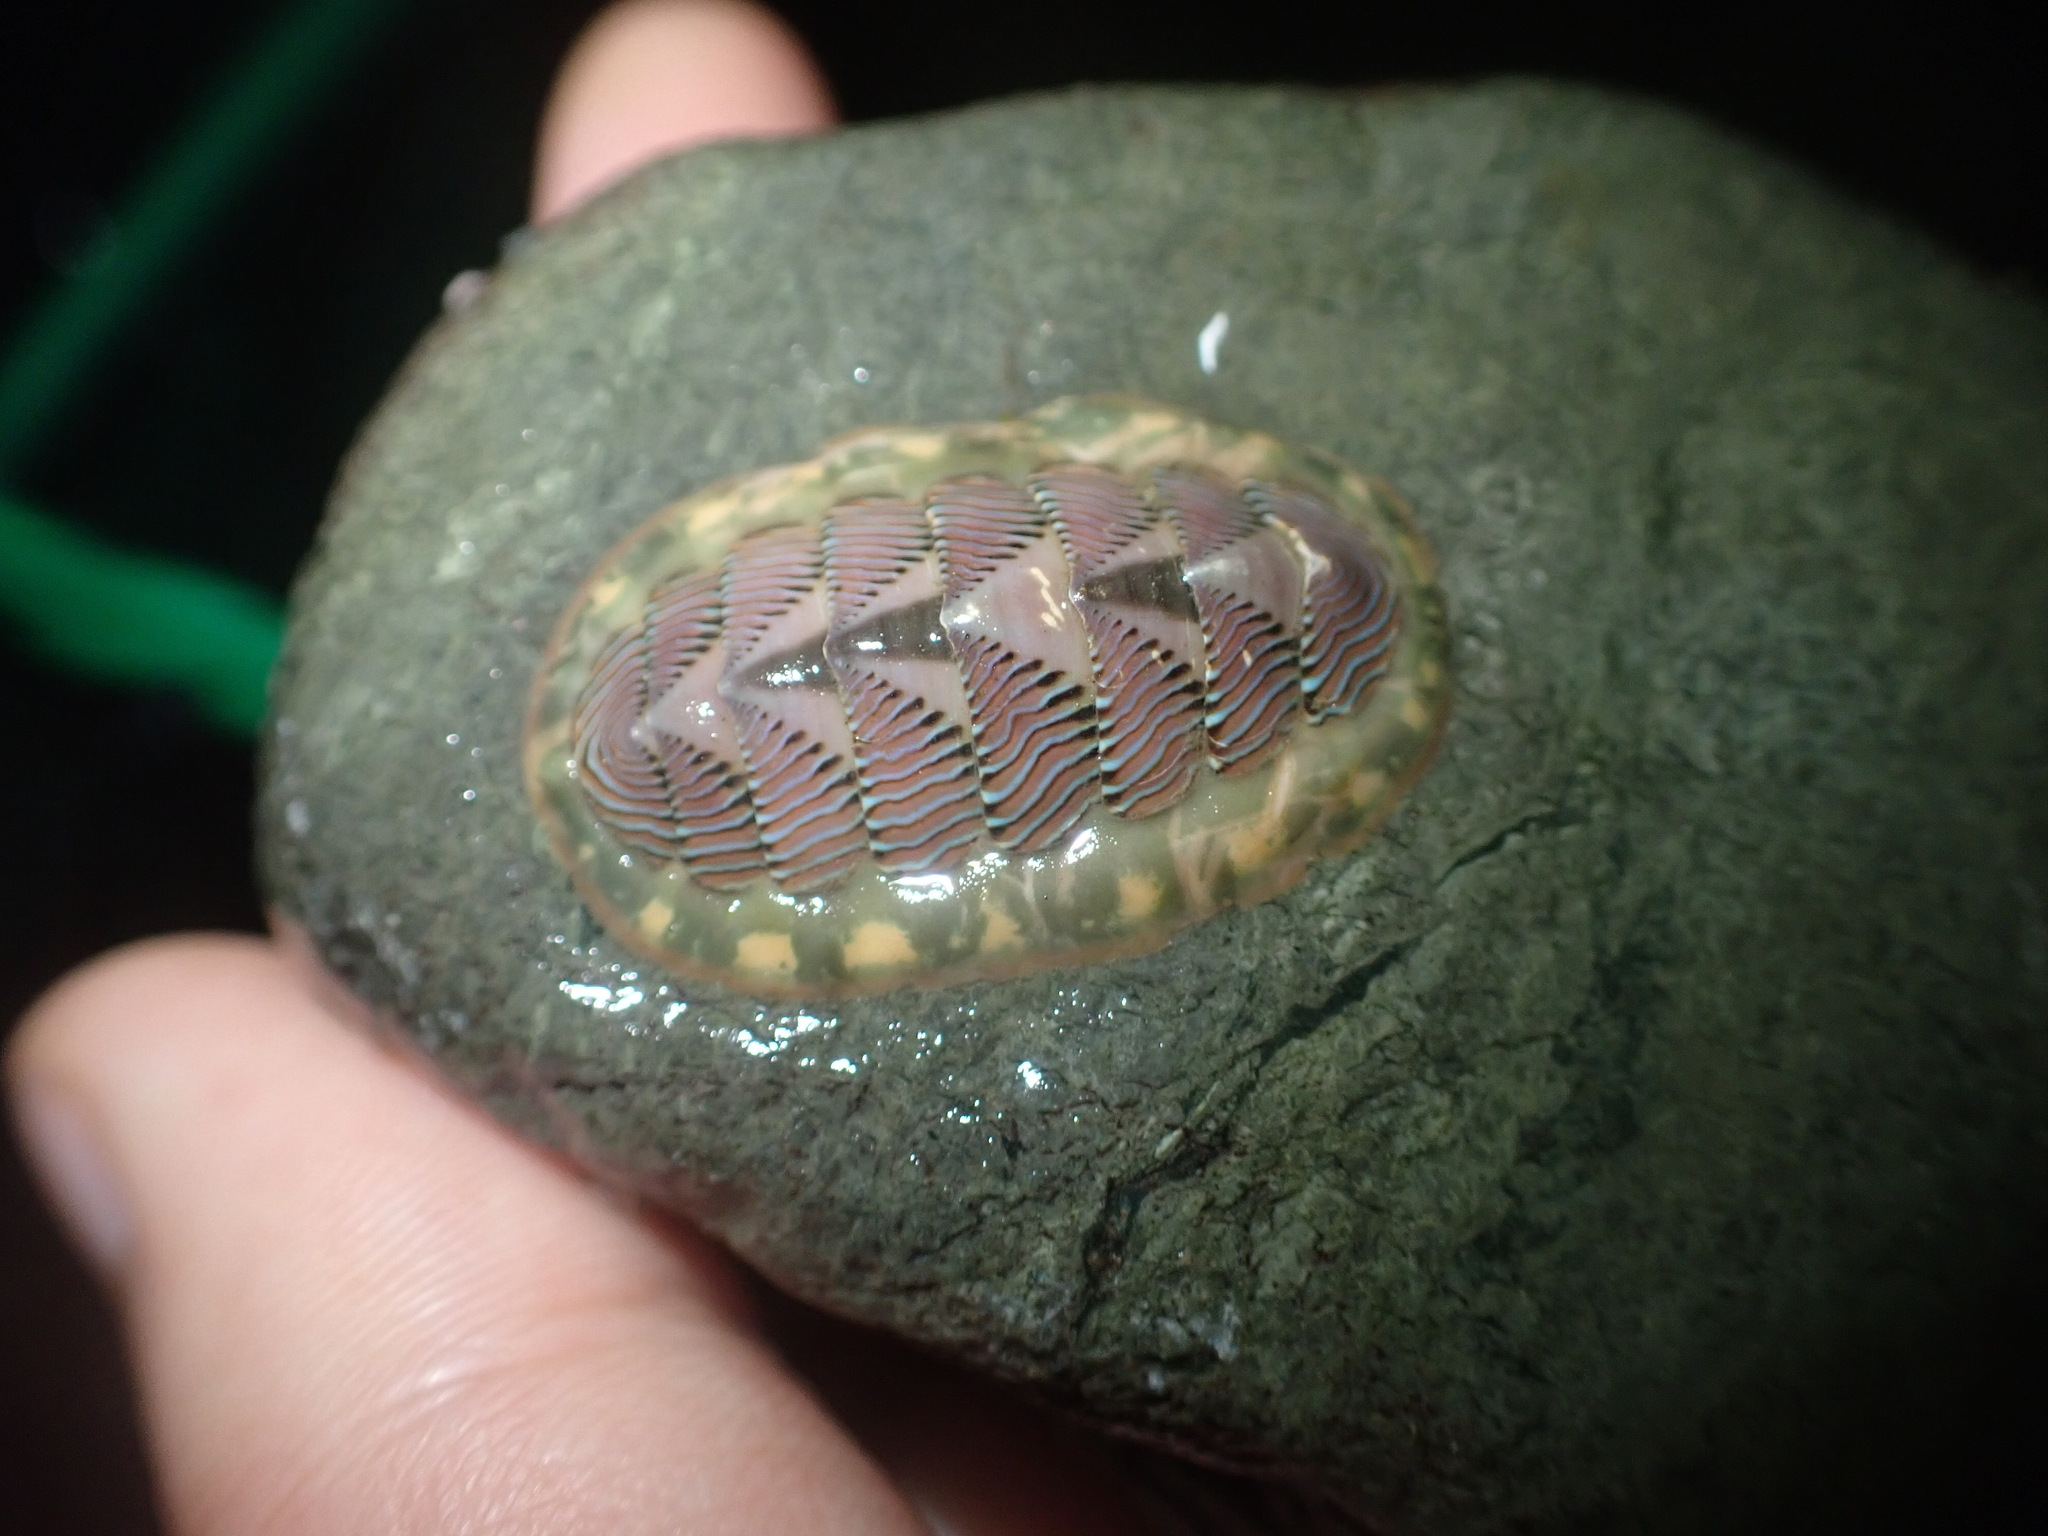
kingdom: Animalia
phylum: Mollusca
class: Polyplacophora
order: Chitonida
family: Tonicellidae
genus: Tonicella
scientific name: Tonicella lineata
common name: Lined chiton
